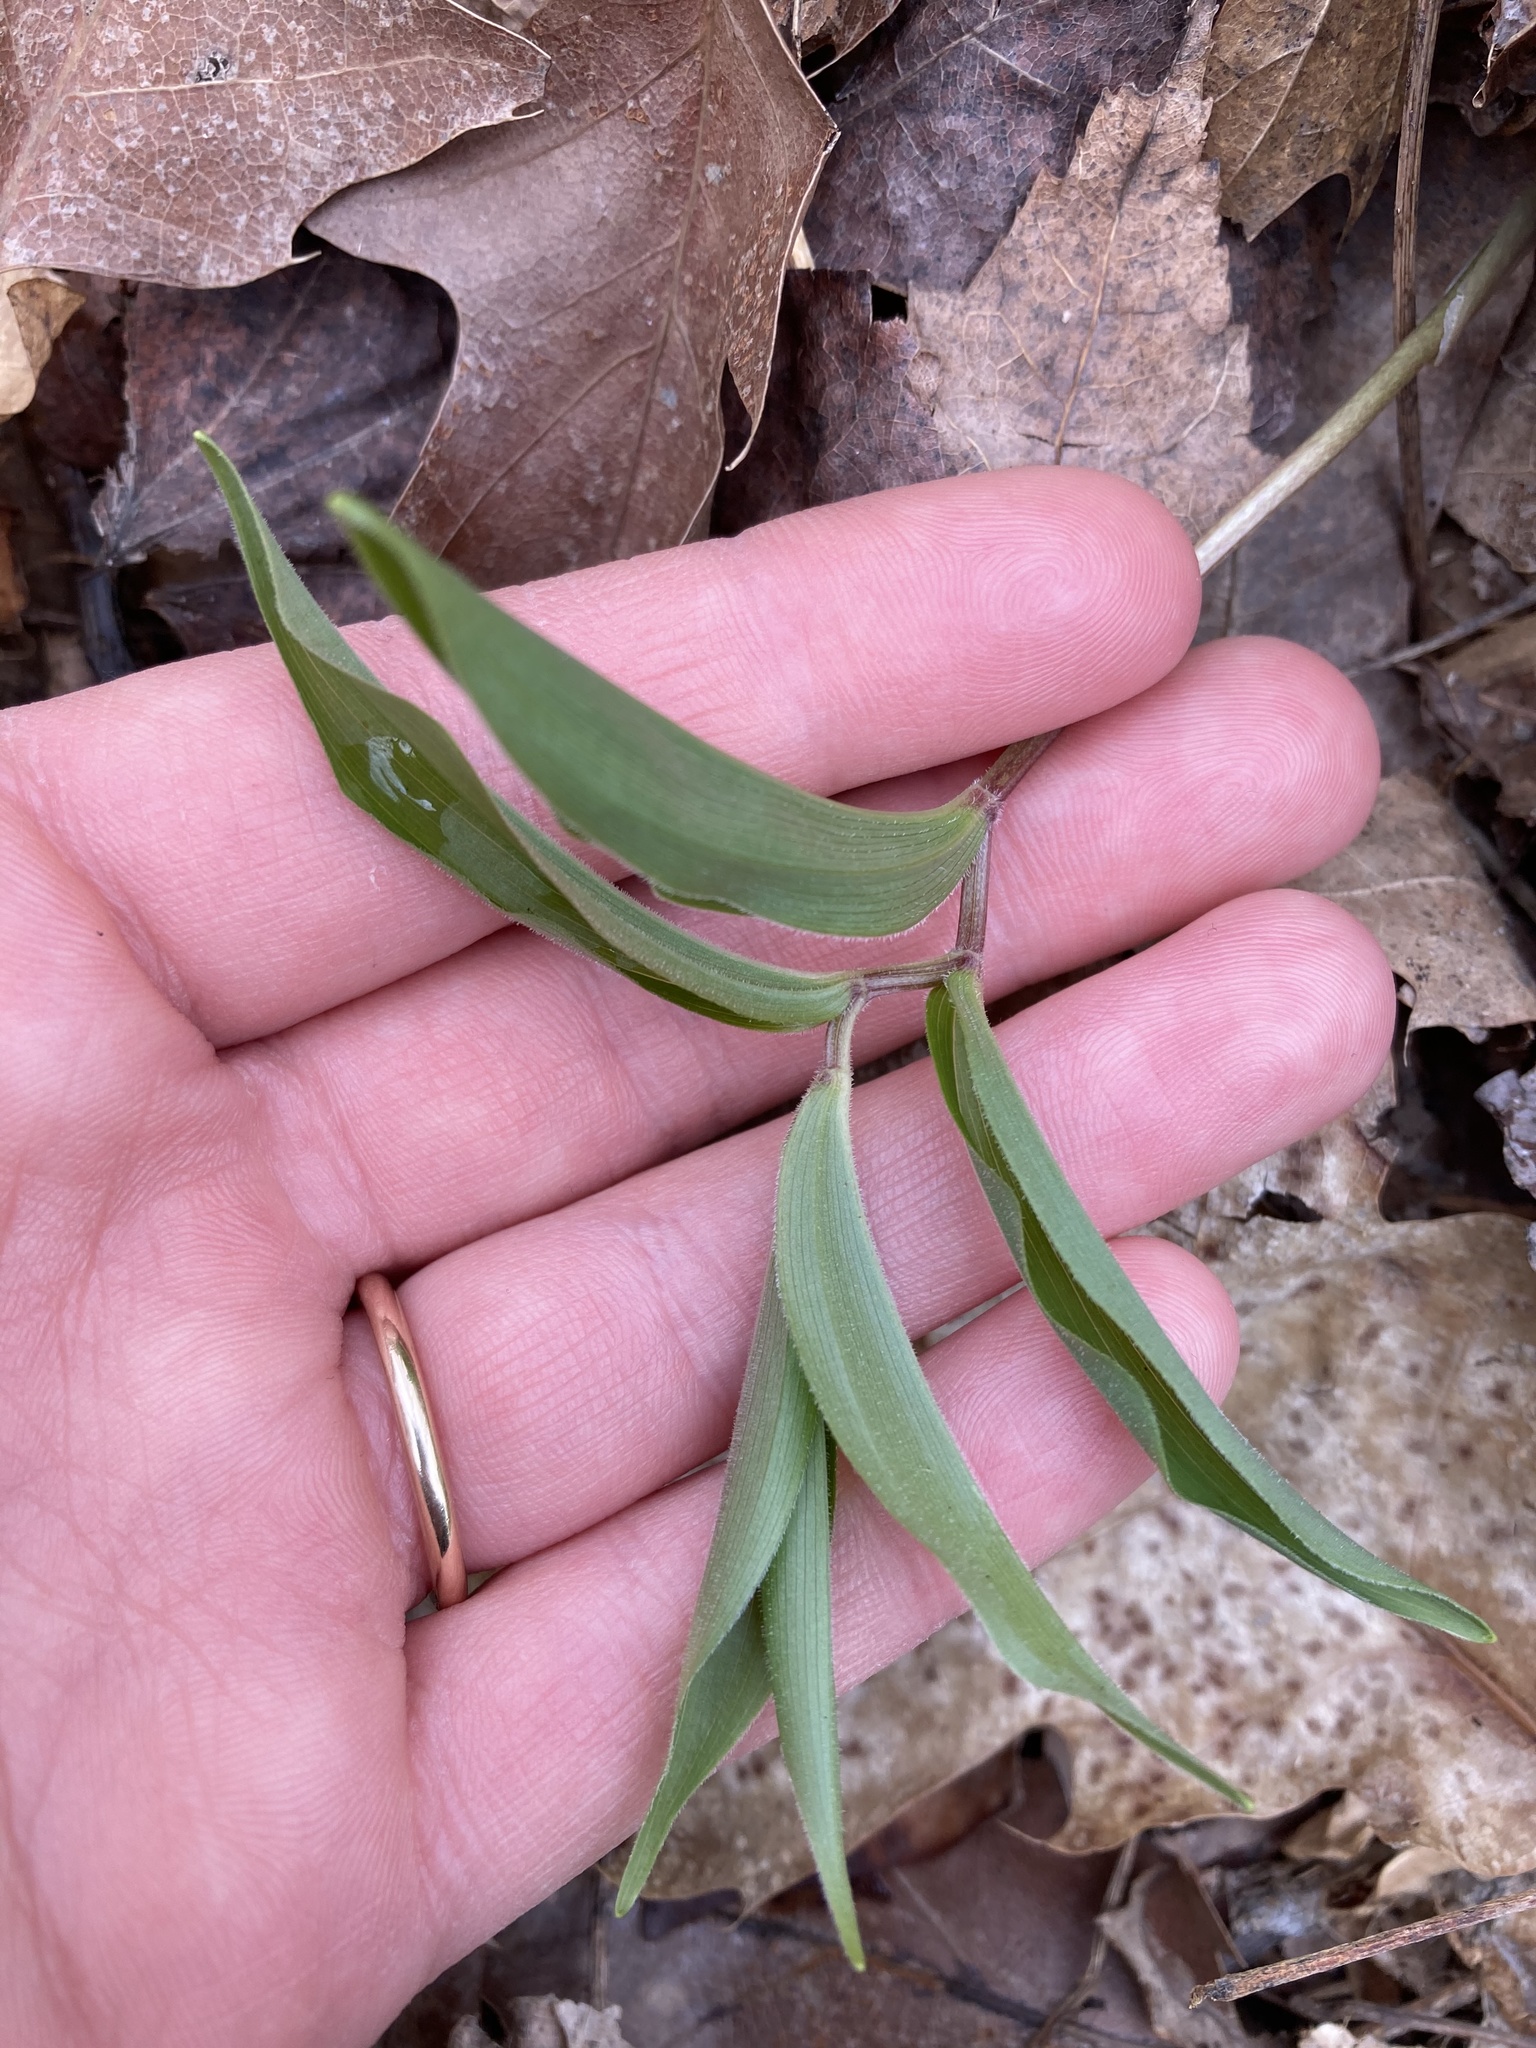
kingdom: Plantae
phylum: Tracheophyta
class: Liliopsida
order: Asparagales
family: Asparagaceae
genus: Maianthemum
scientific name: Maianthemum racemosum
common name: False spikenard
